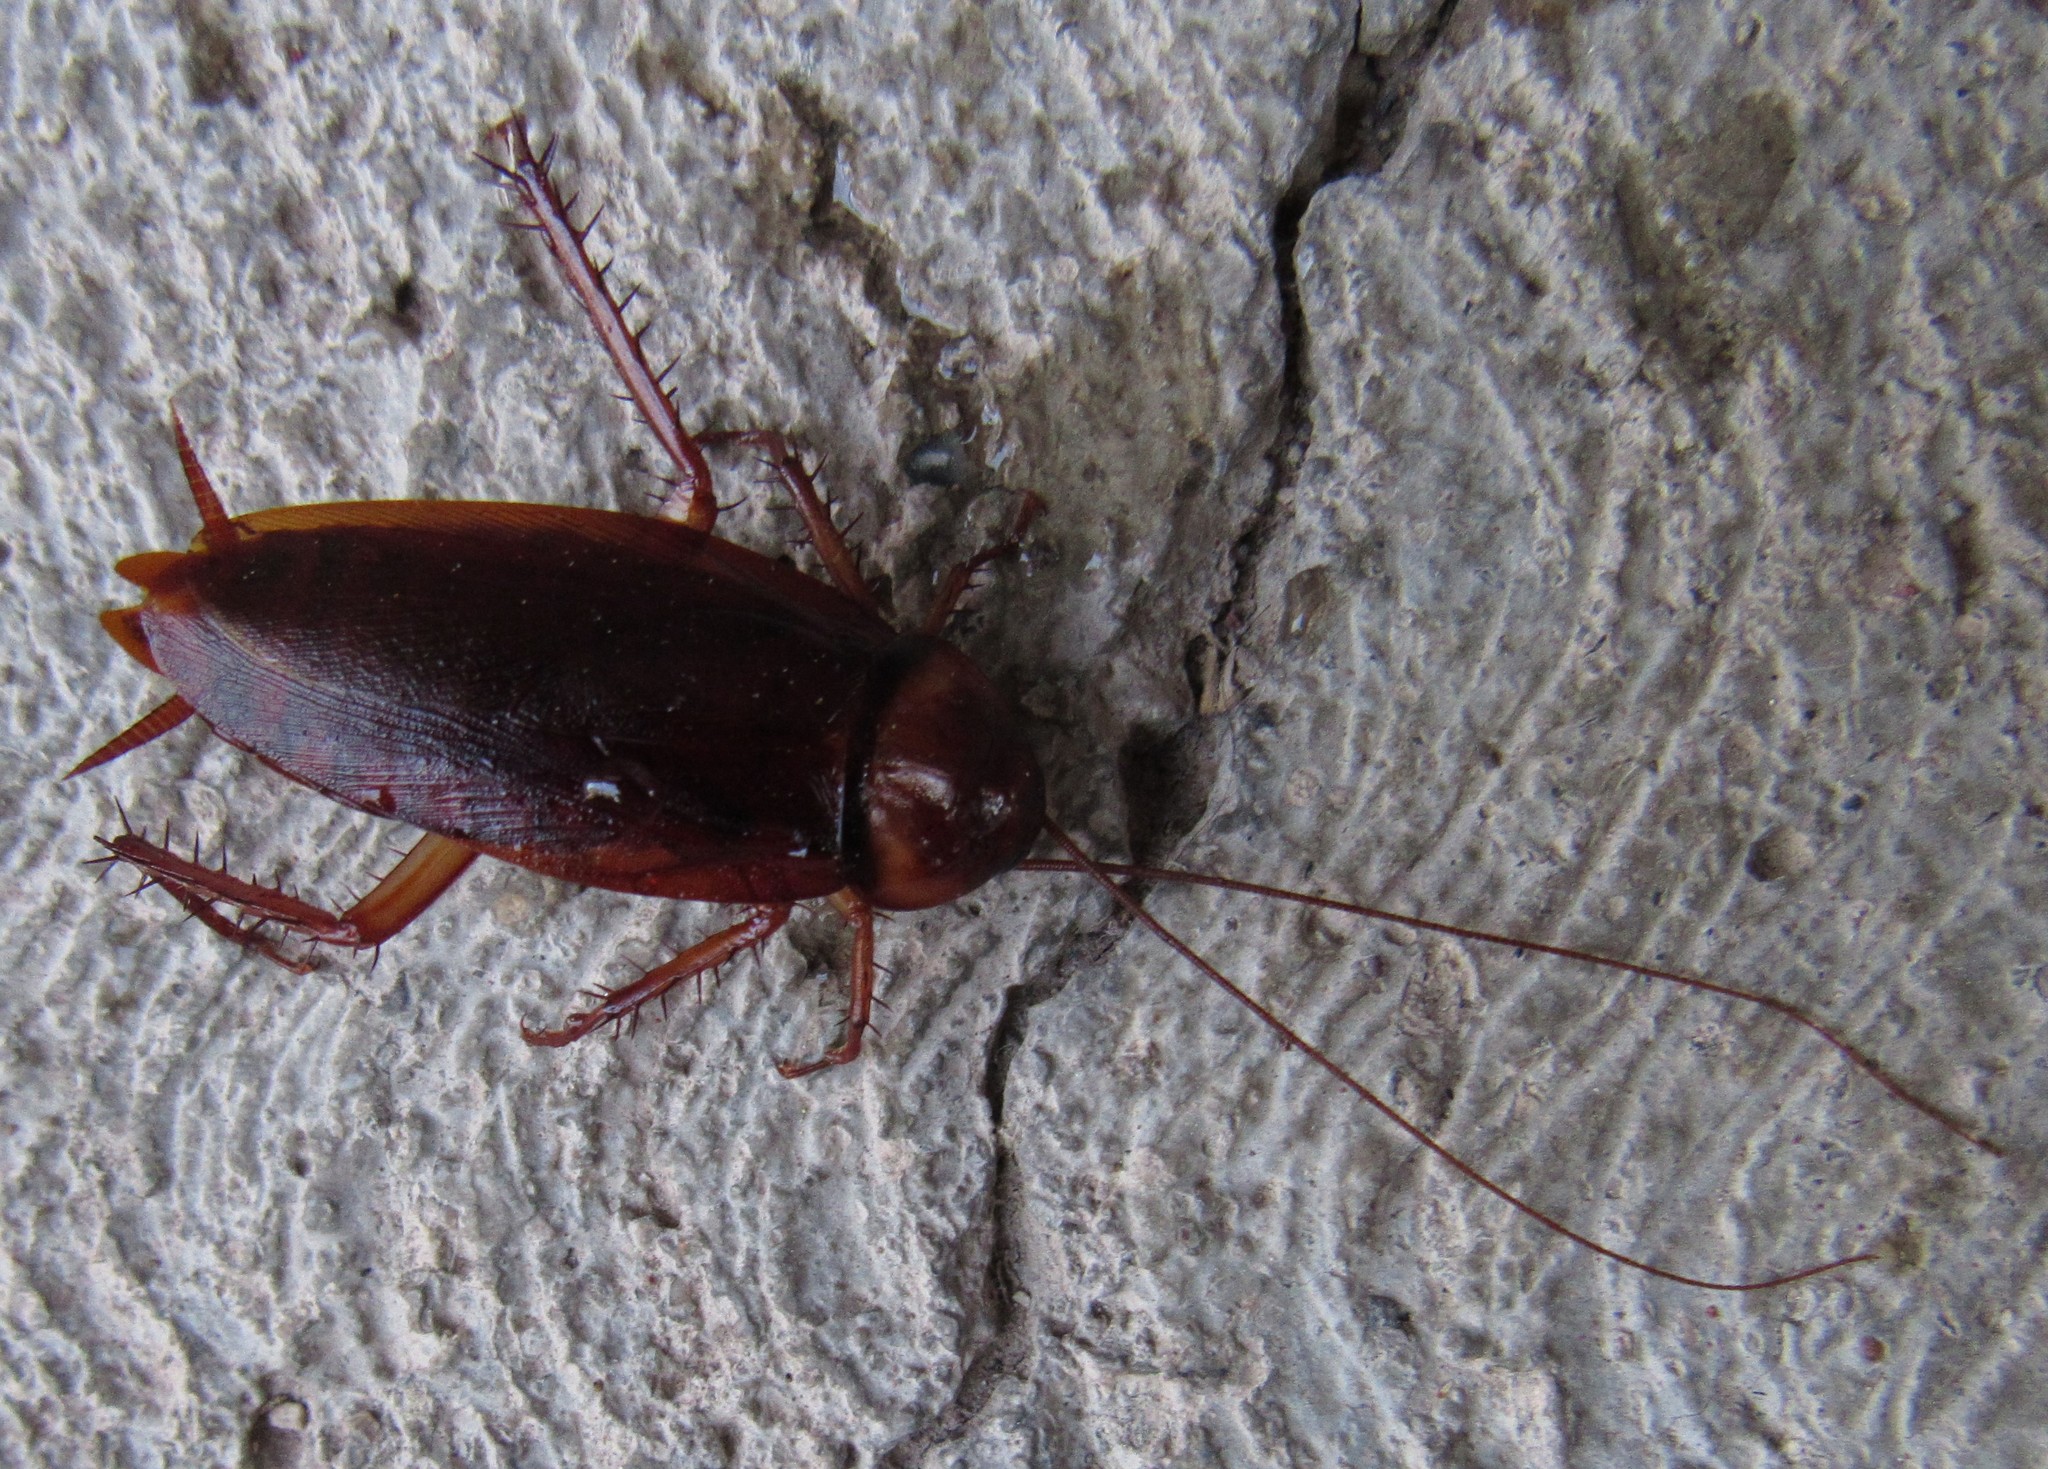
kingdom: Animalia
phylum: Arthropoda
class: Insecta
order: Blattodea
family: Blattidae
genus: Periplaneta
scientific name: Periplaneta americana
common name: American cockroach
